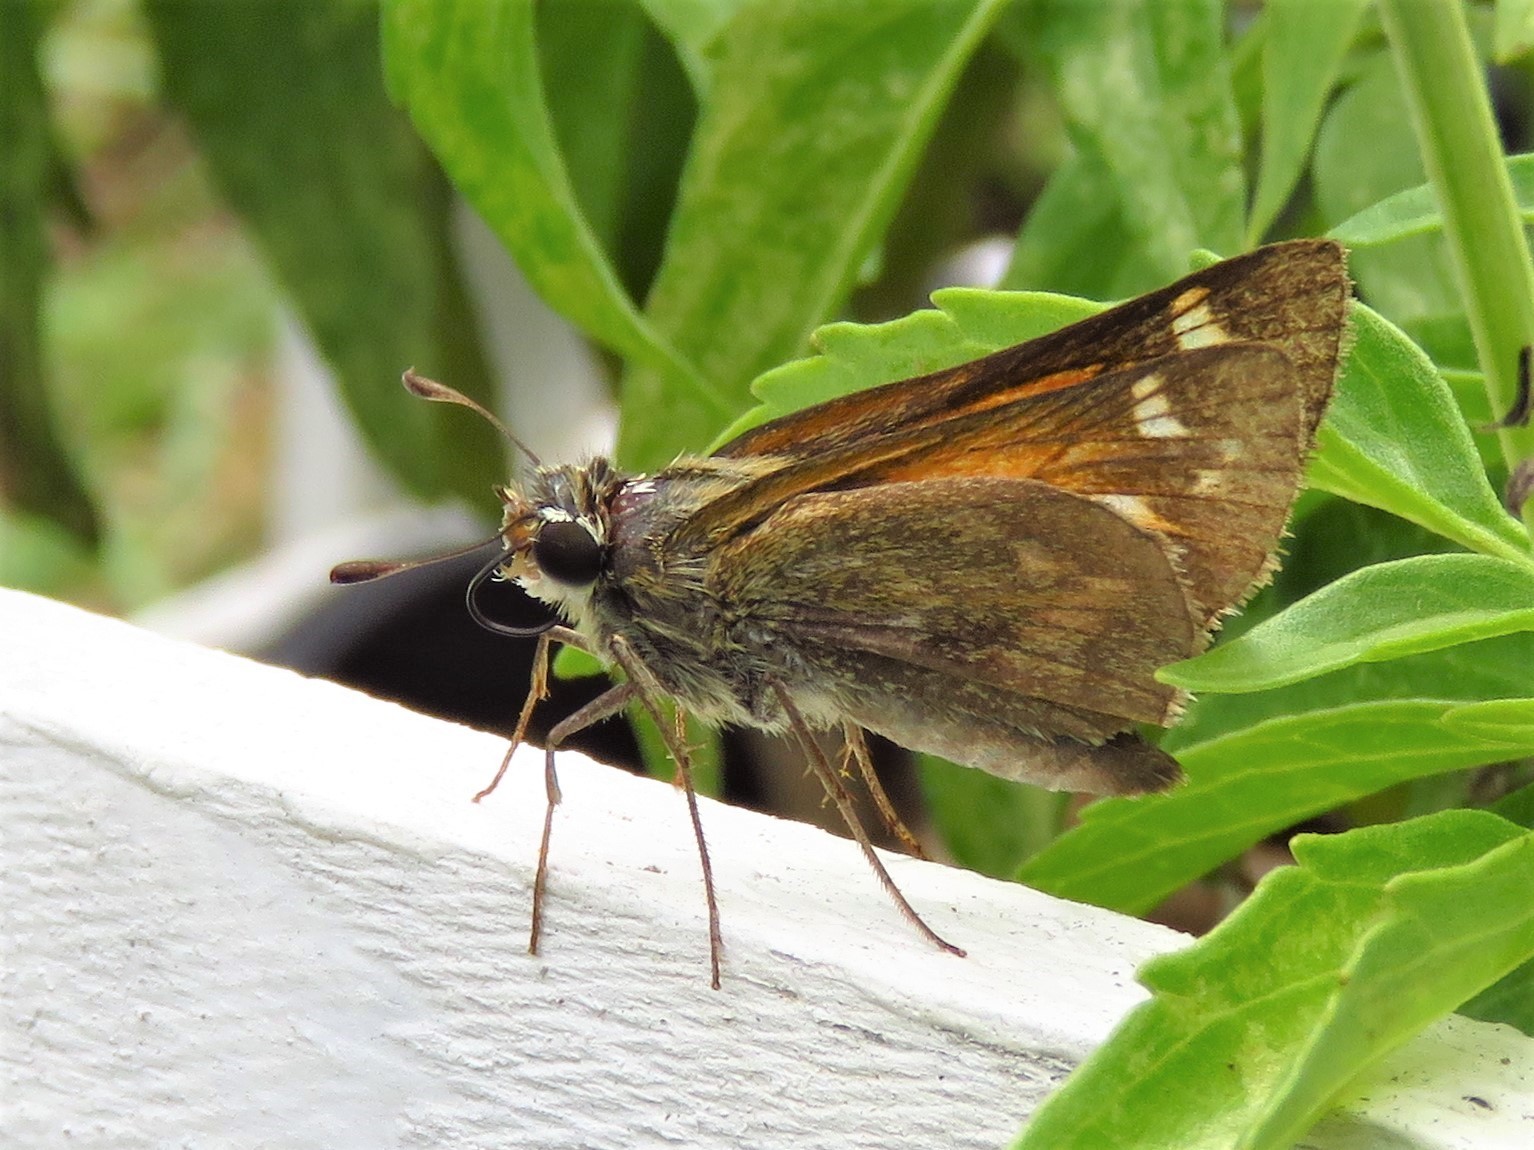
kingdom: Animalia
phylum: Arthropoda
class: Insecta
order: Lepidoptera
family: Hesperiidae
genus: Atalopedes
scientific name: Atalopedes
